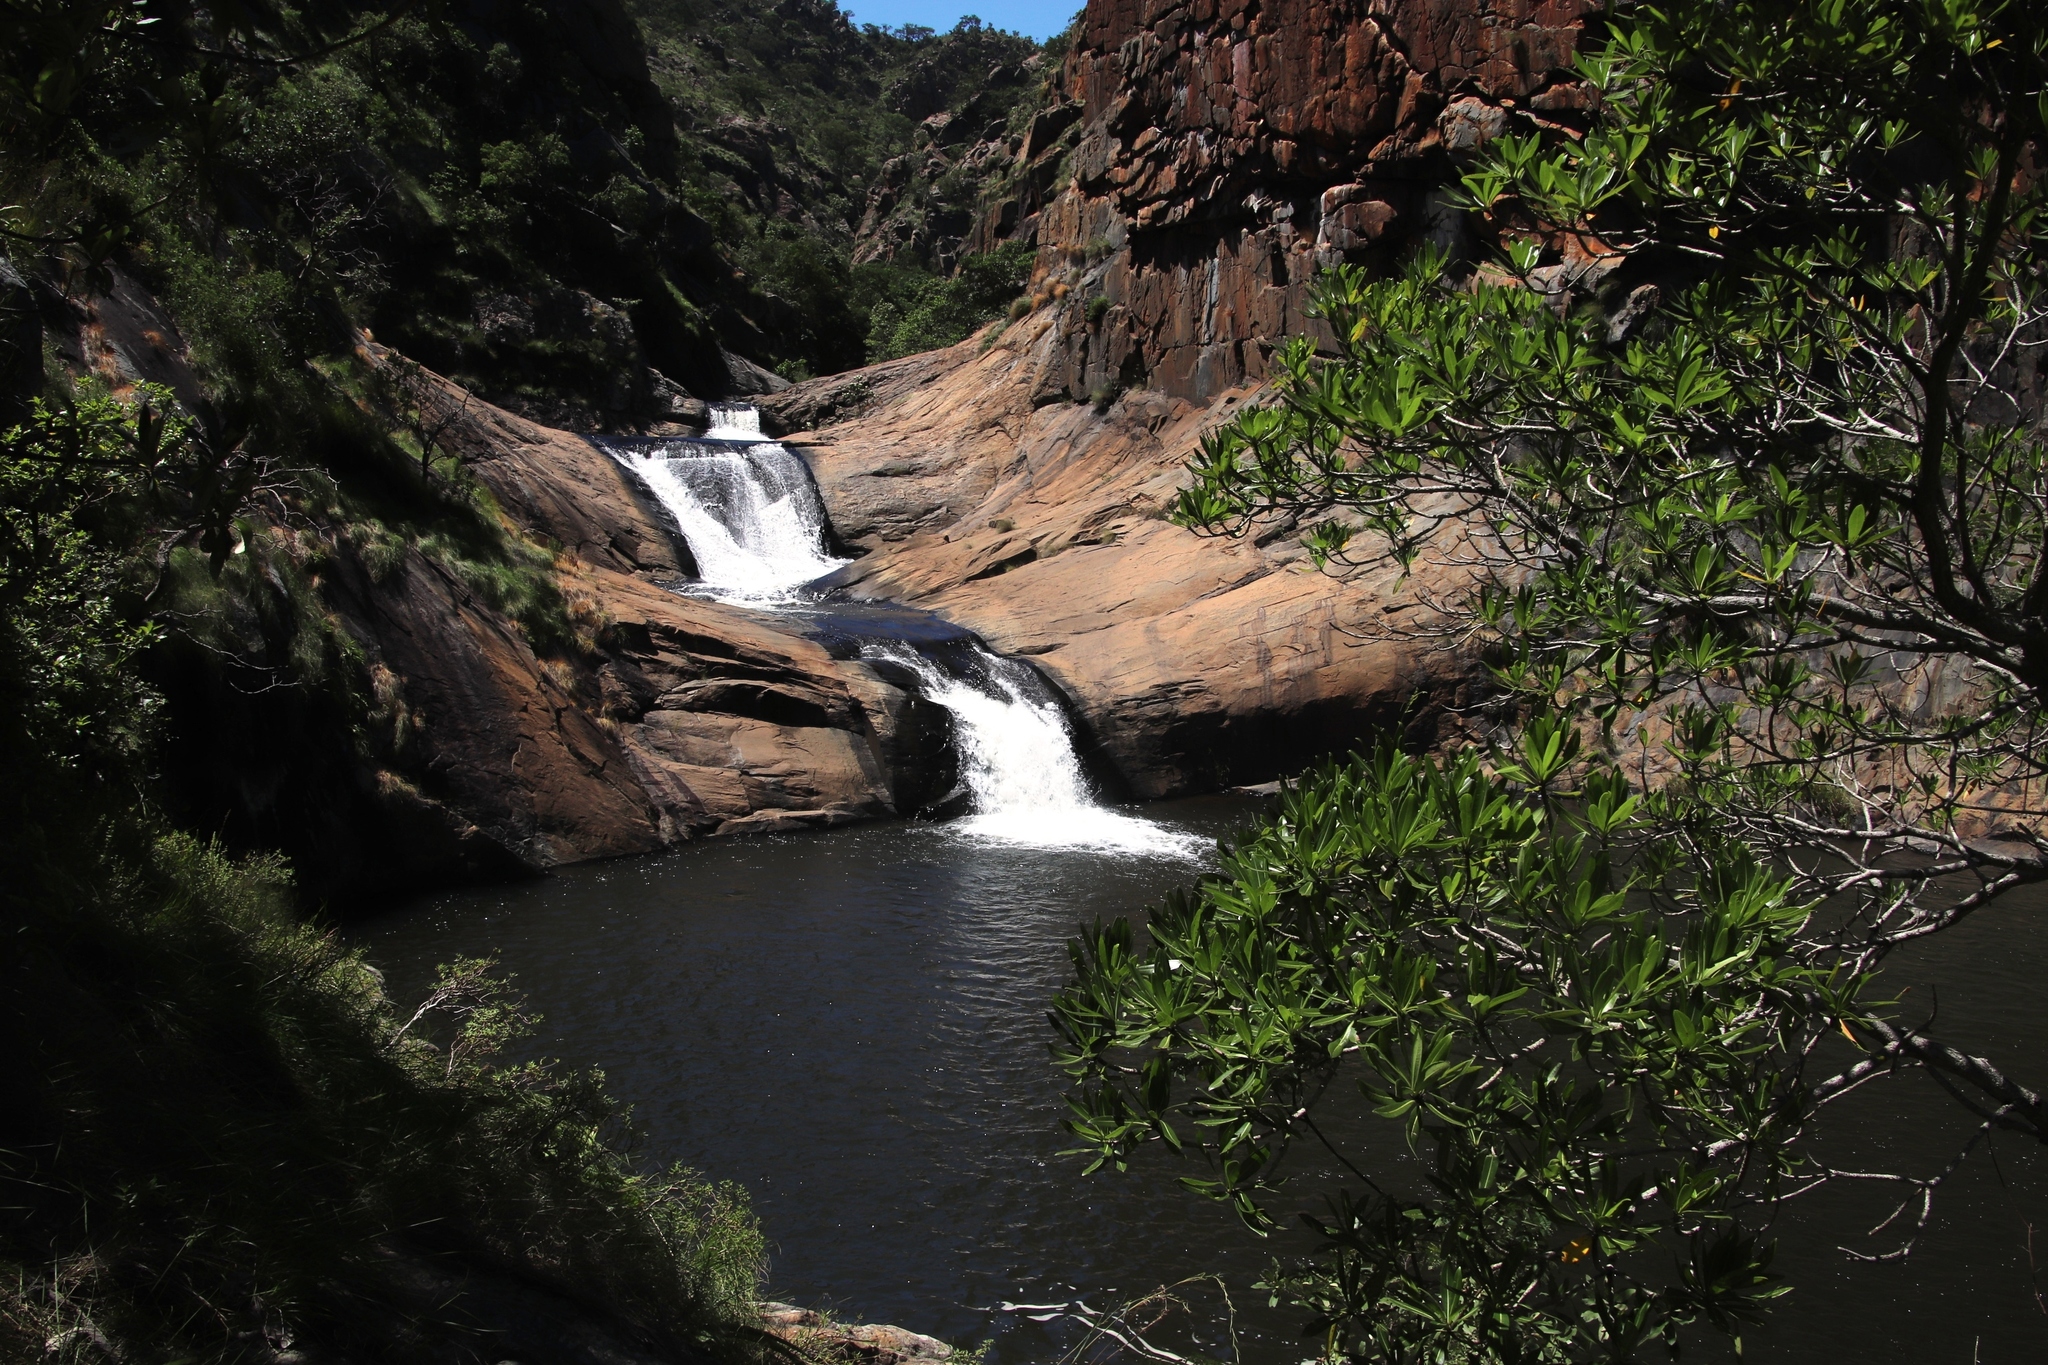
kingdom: Plantae
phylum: Tracheophyta
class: Magnoliopsida
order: Gentianales
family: Rubiaceae
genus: Breonadia
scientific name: Breonadia salicina
